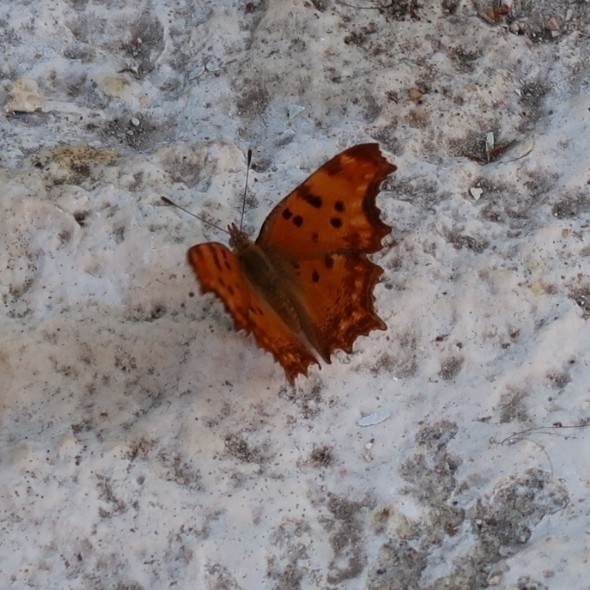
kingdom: Animalia
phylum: Arthropoda
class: Insecta
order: Lepidoptera
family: Nymphalidae
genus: Polygonia
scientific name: Polygonia egea
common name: Southern comma
